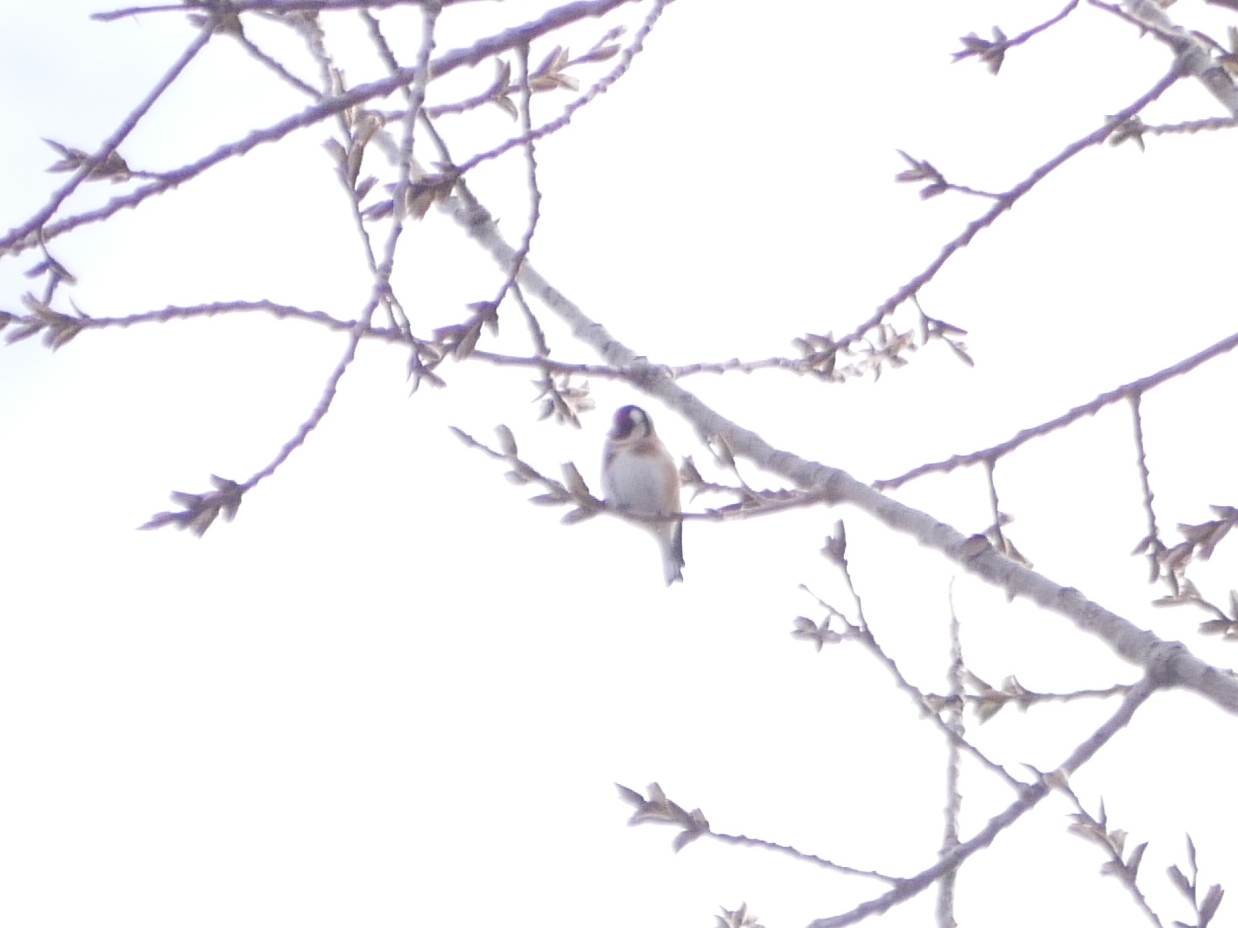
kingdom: Animalia
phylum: Chordata
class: Aves
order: Passeriformes
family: Fringillidae
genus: Carduelis
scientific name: Carduelis carduelis
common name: European goldfinch
